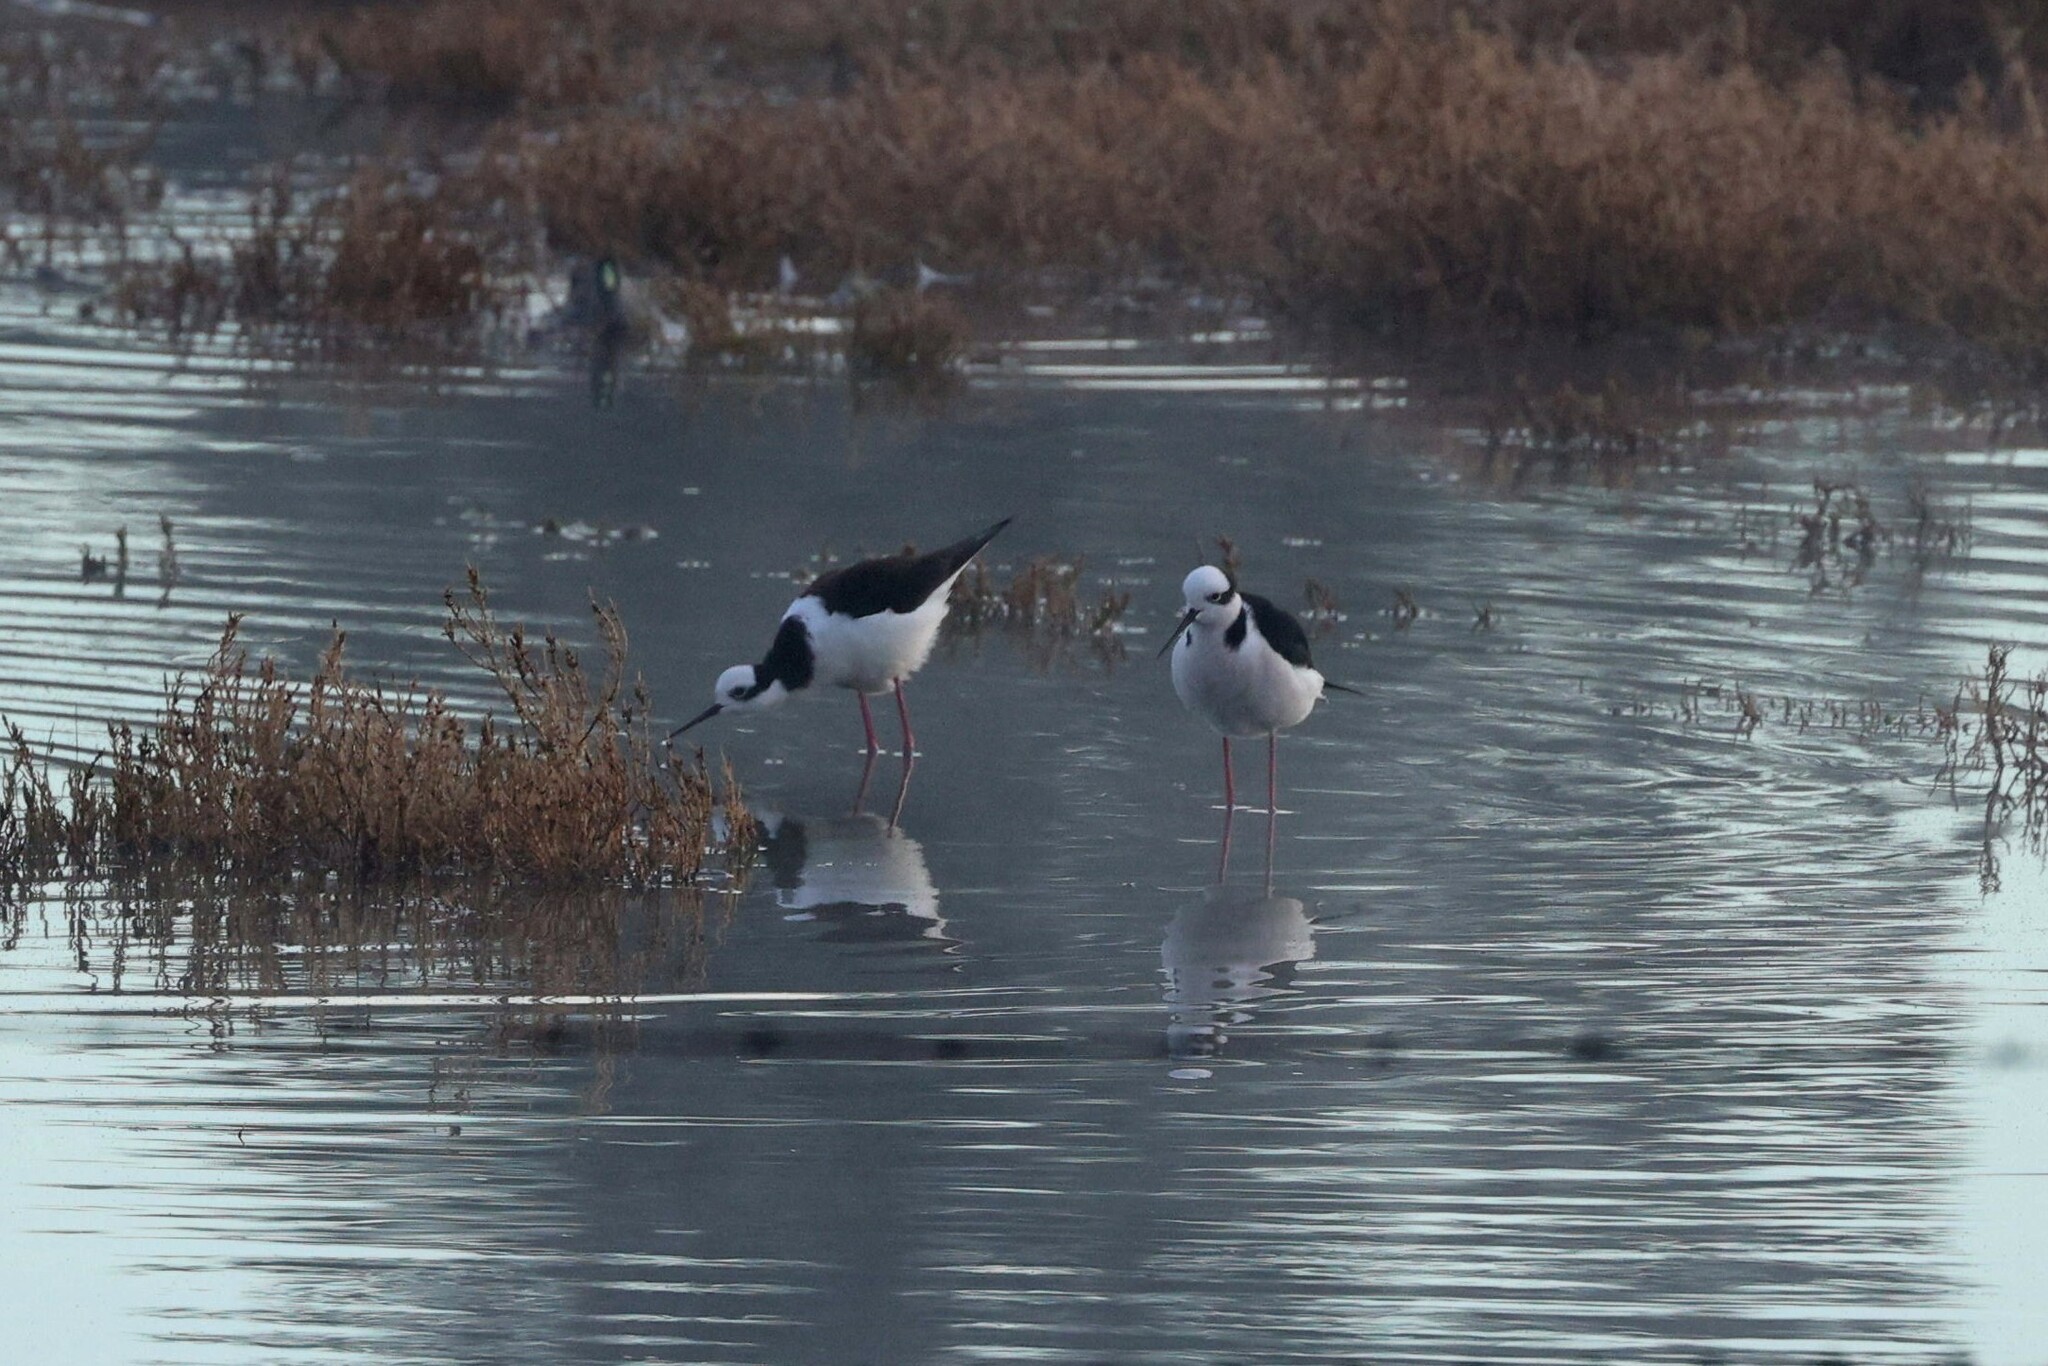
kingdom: Animalia
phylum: Chordata
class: Aves
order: Charadriiformes
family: Recurvirostridae
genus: Himantopus
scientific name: Himantopus mexicanus
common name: Black-necked stilt
